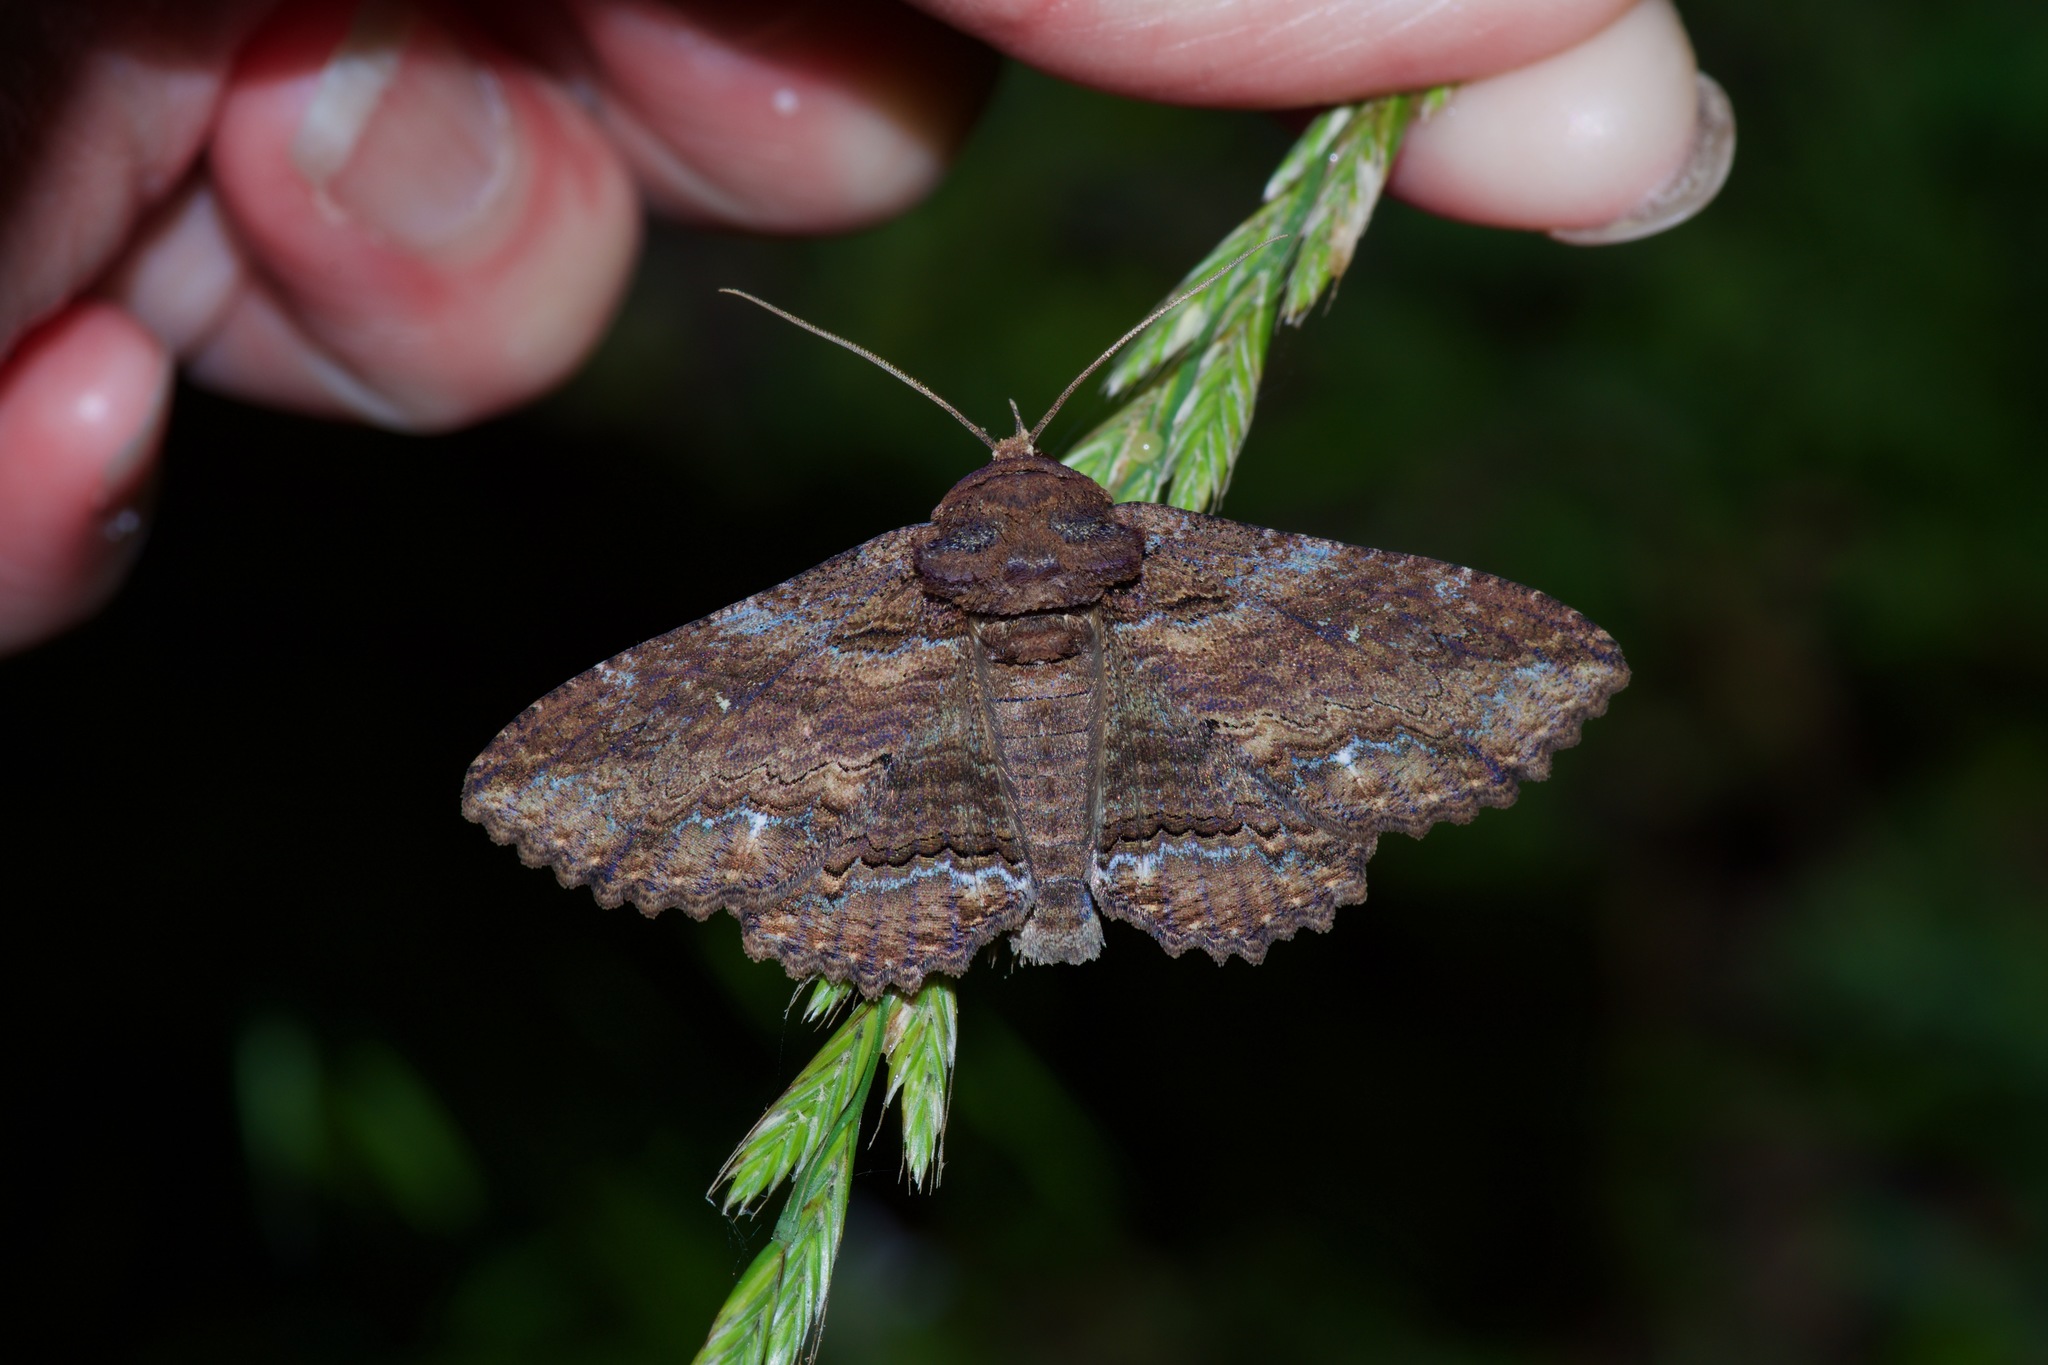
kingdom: Animalia
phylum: Arthropoda
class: Insecta
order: Lepidoptera
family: Erebidae
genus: Zale
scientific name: Zale lunata
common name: Lunate zale moth
